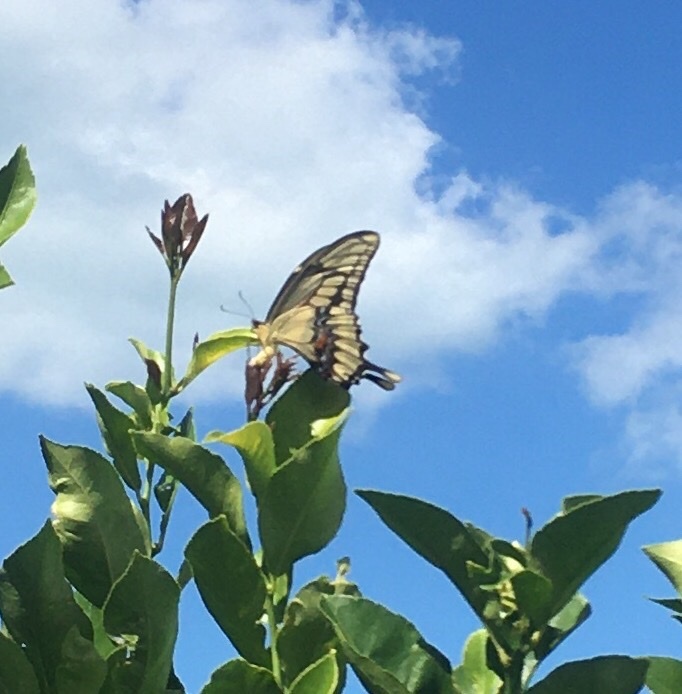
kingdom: Animalia
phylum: Arthropoda
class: Insecta
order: Lepidoptera
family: Papilionidae
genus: Papilio
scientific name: Papilio thoas
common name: King swallowtail
